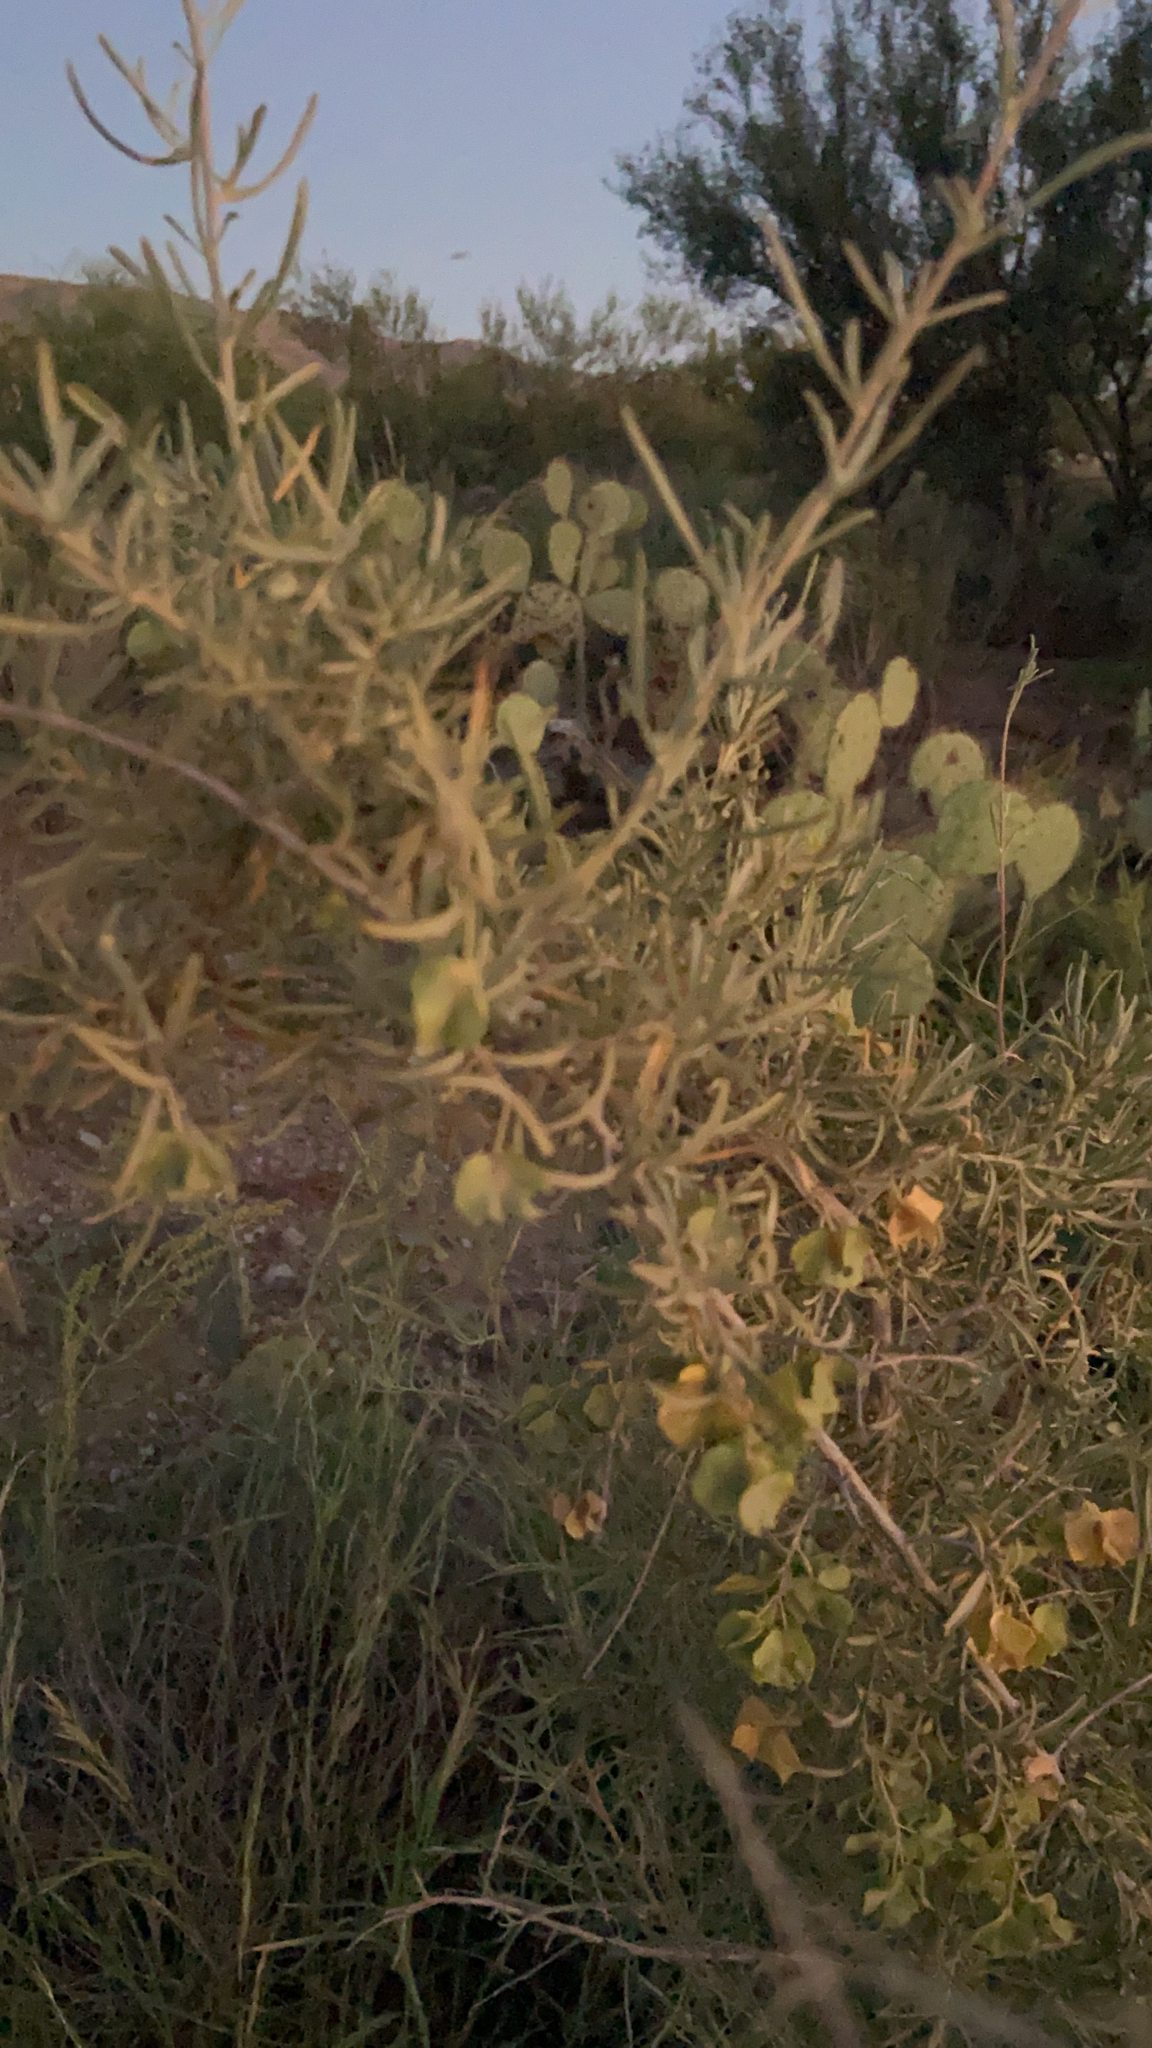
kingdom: Plantae
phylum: Tracheophyta
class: Magnoliopsida
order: Caryophyllales
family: Amaranthaceae
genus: Atriplex
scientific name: Atriplex canescens
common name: Four-wing saltbush
